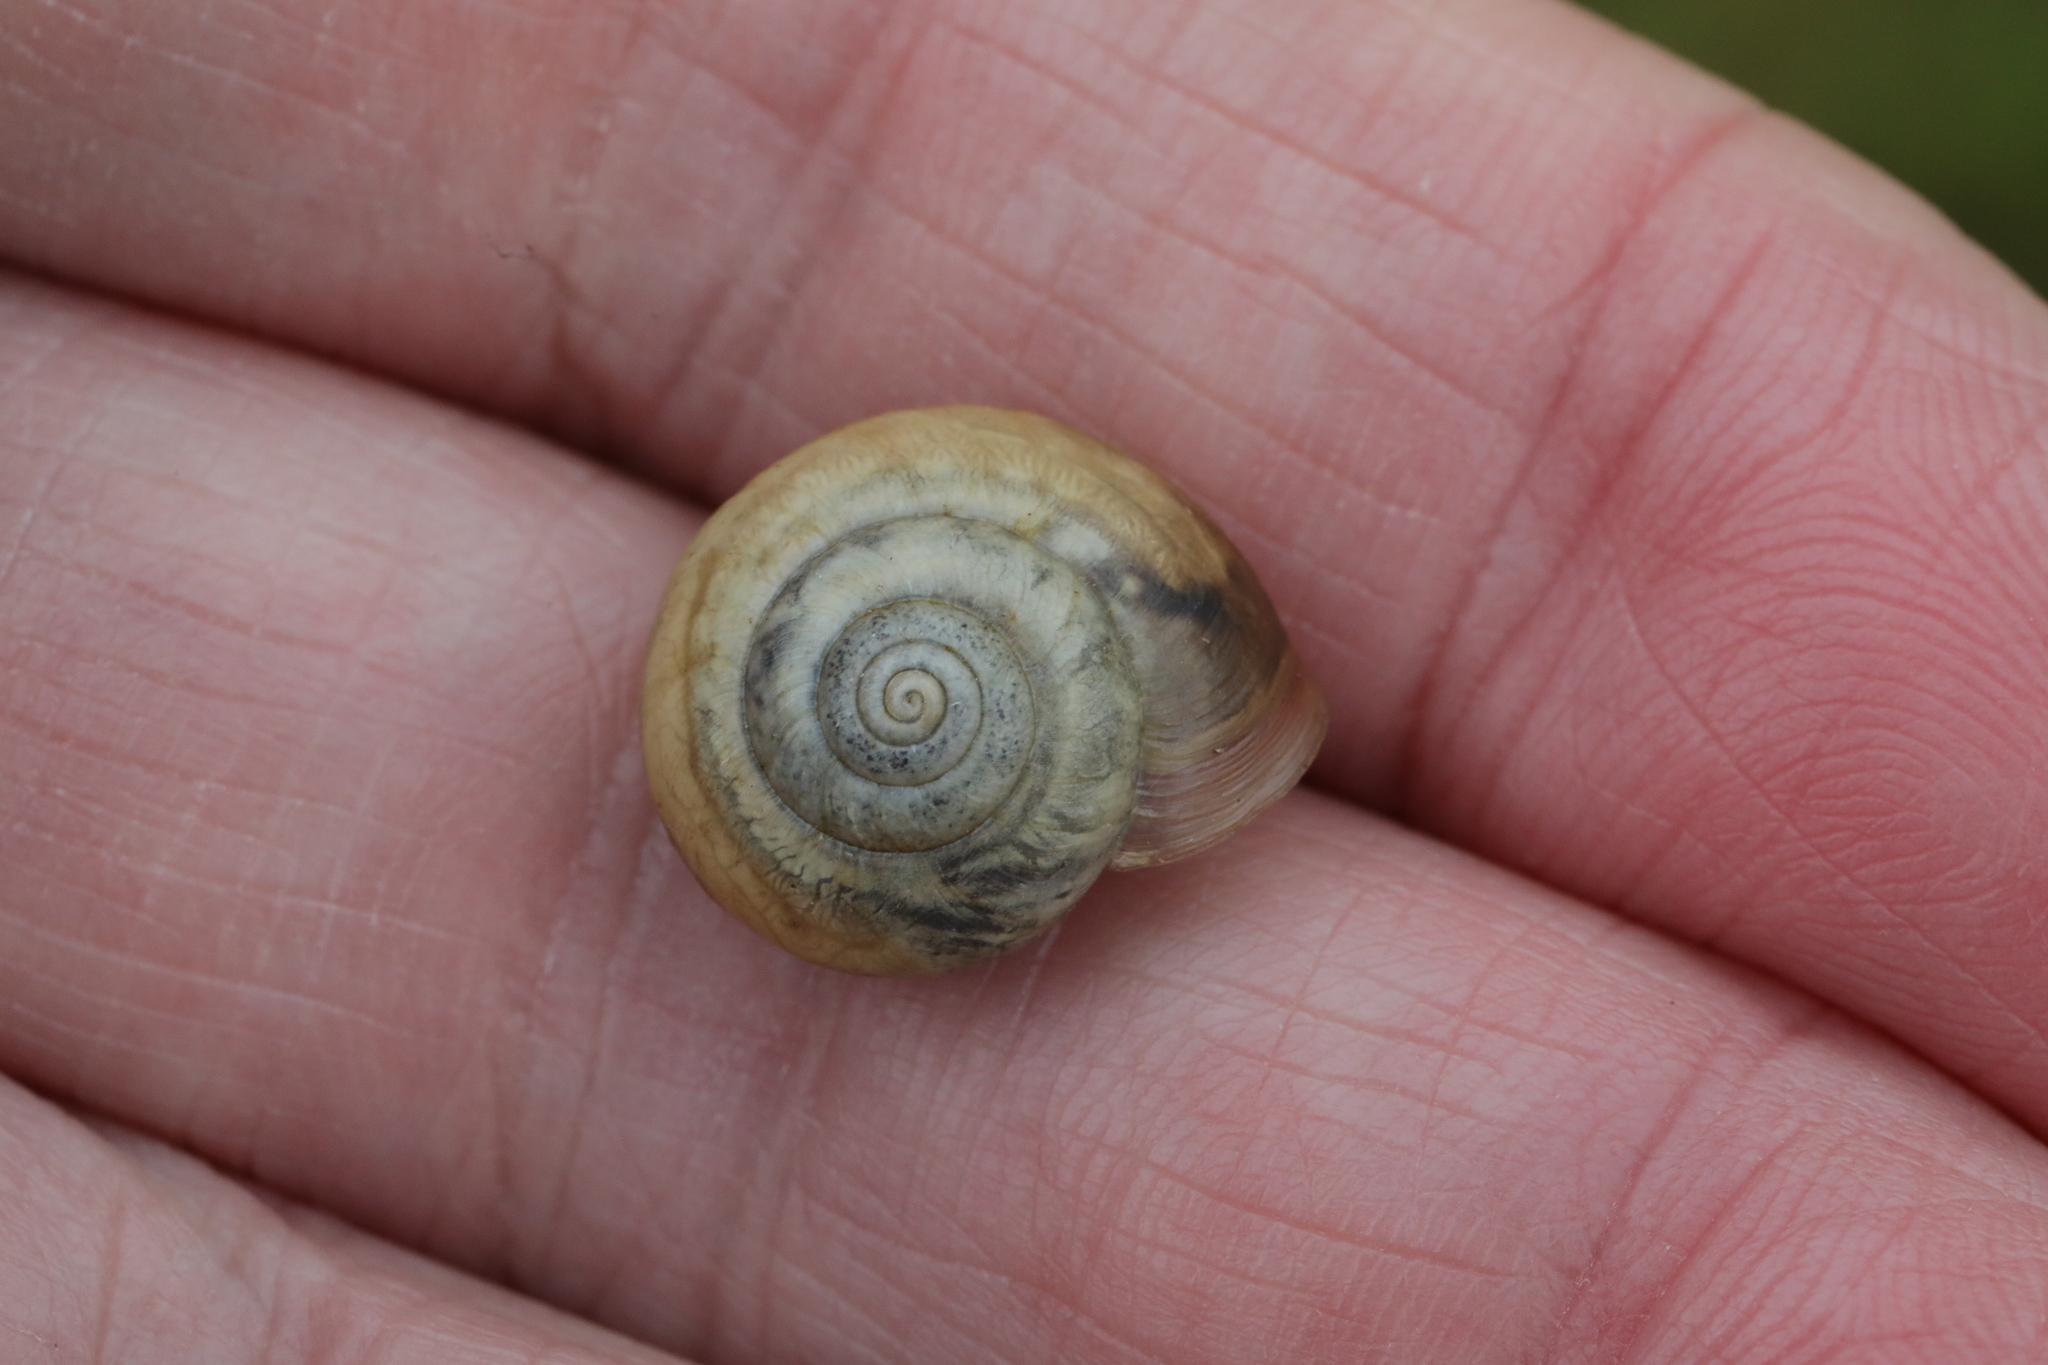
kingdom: Animalia
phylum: Mollusca
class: Gastropoda
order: Stylommatophora
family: Hygromiidae
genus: Monacha
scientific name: Monacha cantiana
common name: Kentish snail
